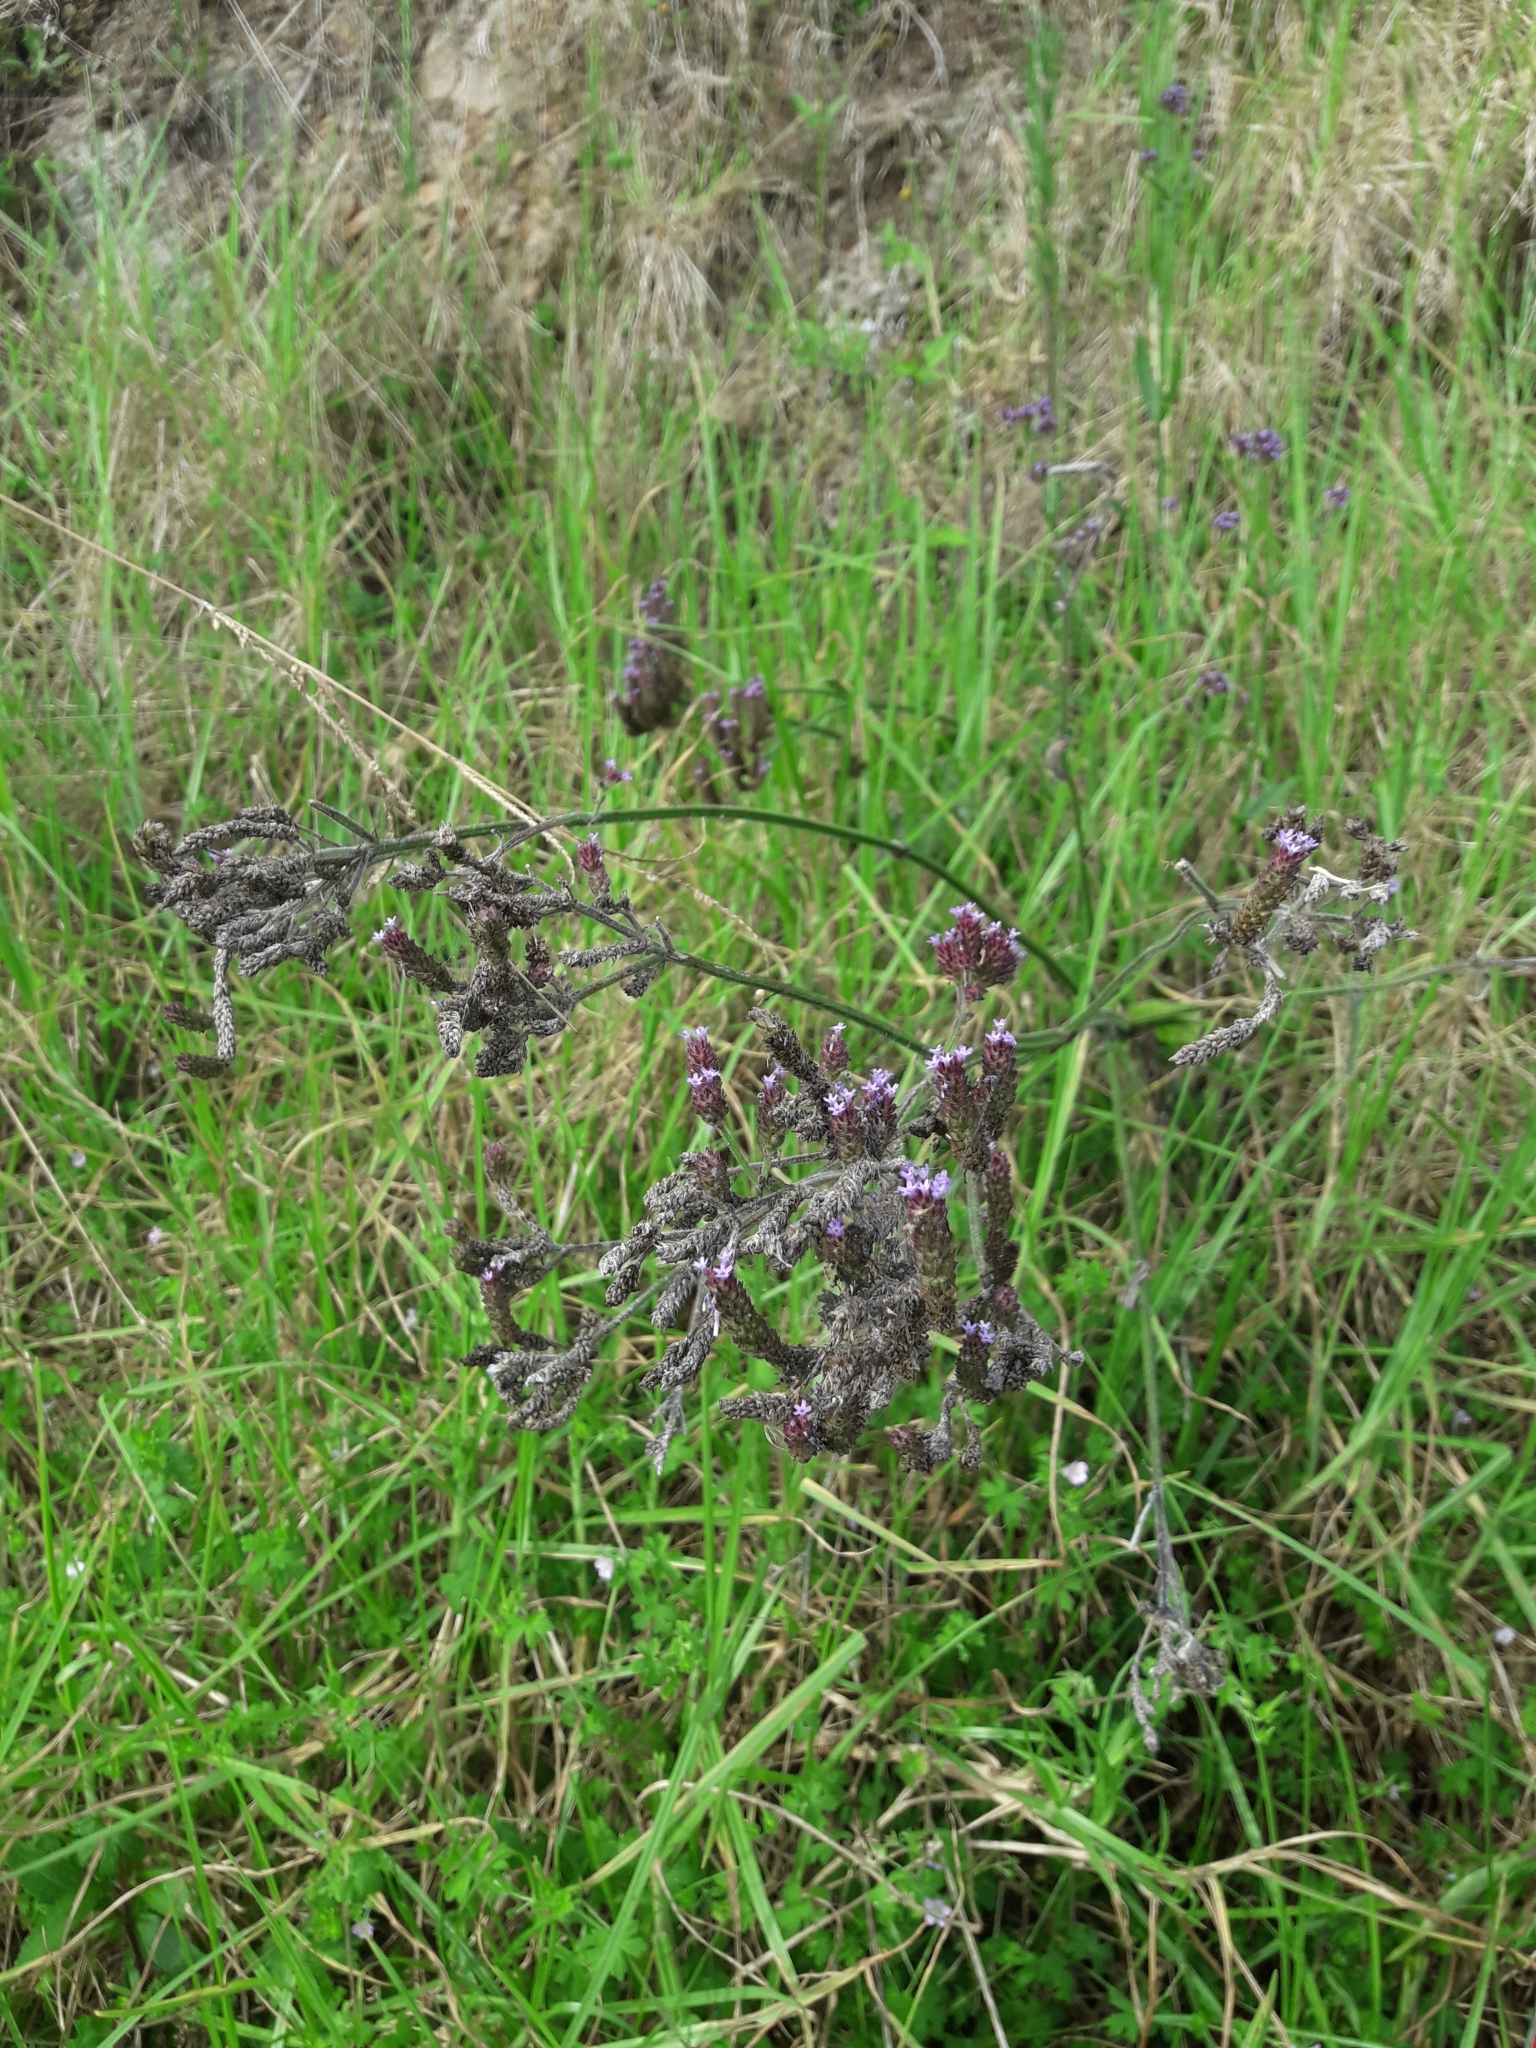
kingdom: Plantae
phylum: Tracheophyta
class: Magnoliopsida
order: Lamiales
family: Verbenaceae
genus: Verbena
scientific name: Verbena incompta
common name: Purpletop vervain
